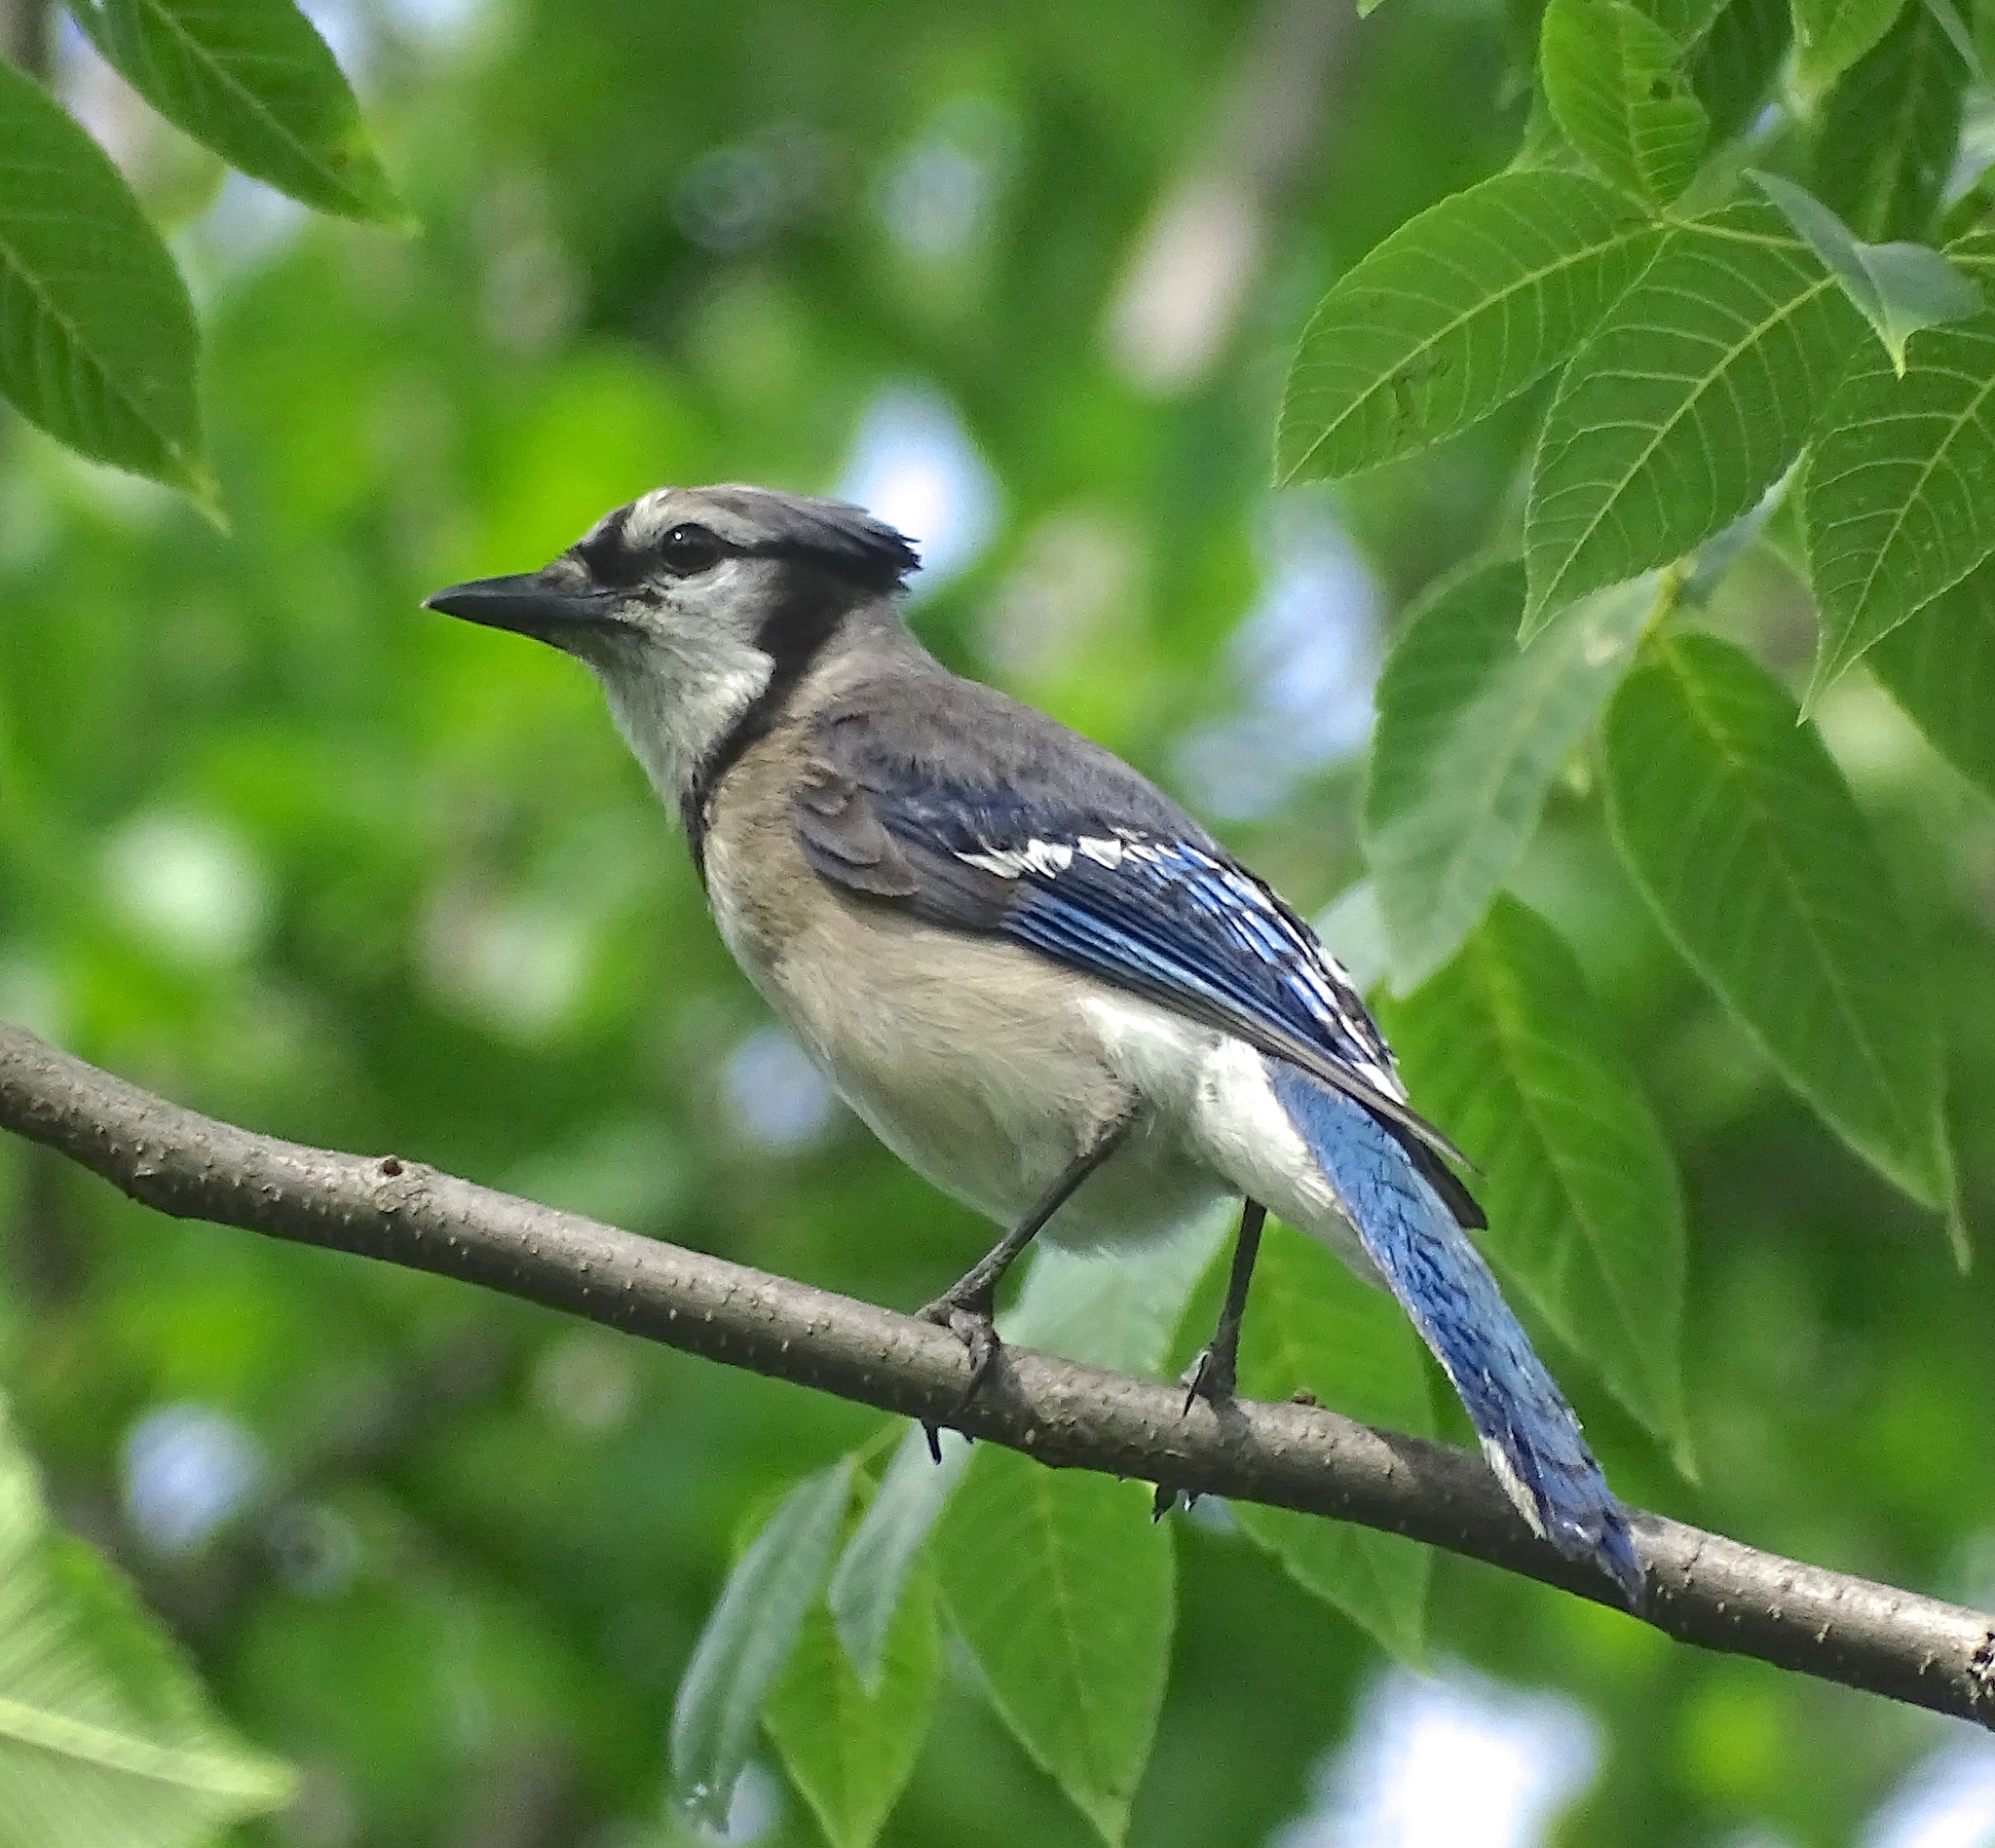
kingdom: Animalia
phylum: Chordata
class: Aves
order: Passeriformes
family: Corvidae
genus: Cyanocitta
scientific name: Cyanocitta cristata
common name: Blue jay
